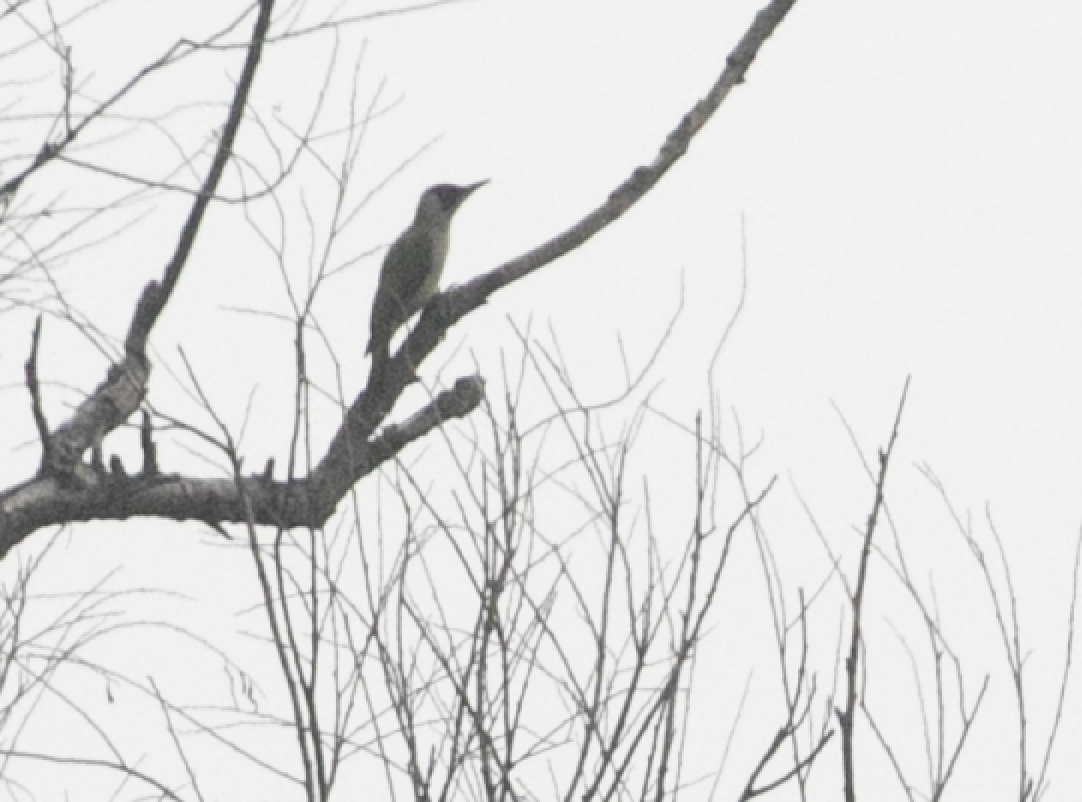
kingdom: Animalia
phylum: Chordata
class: Aves
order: Piciformes
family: Picidae
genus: Picus
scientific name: Picus viridis
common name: European green woodpecker
